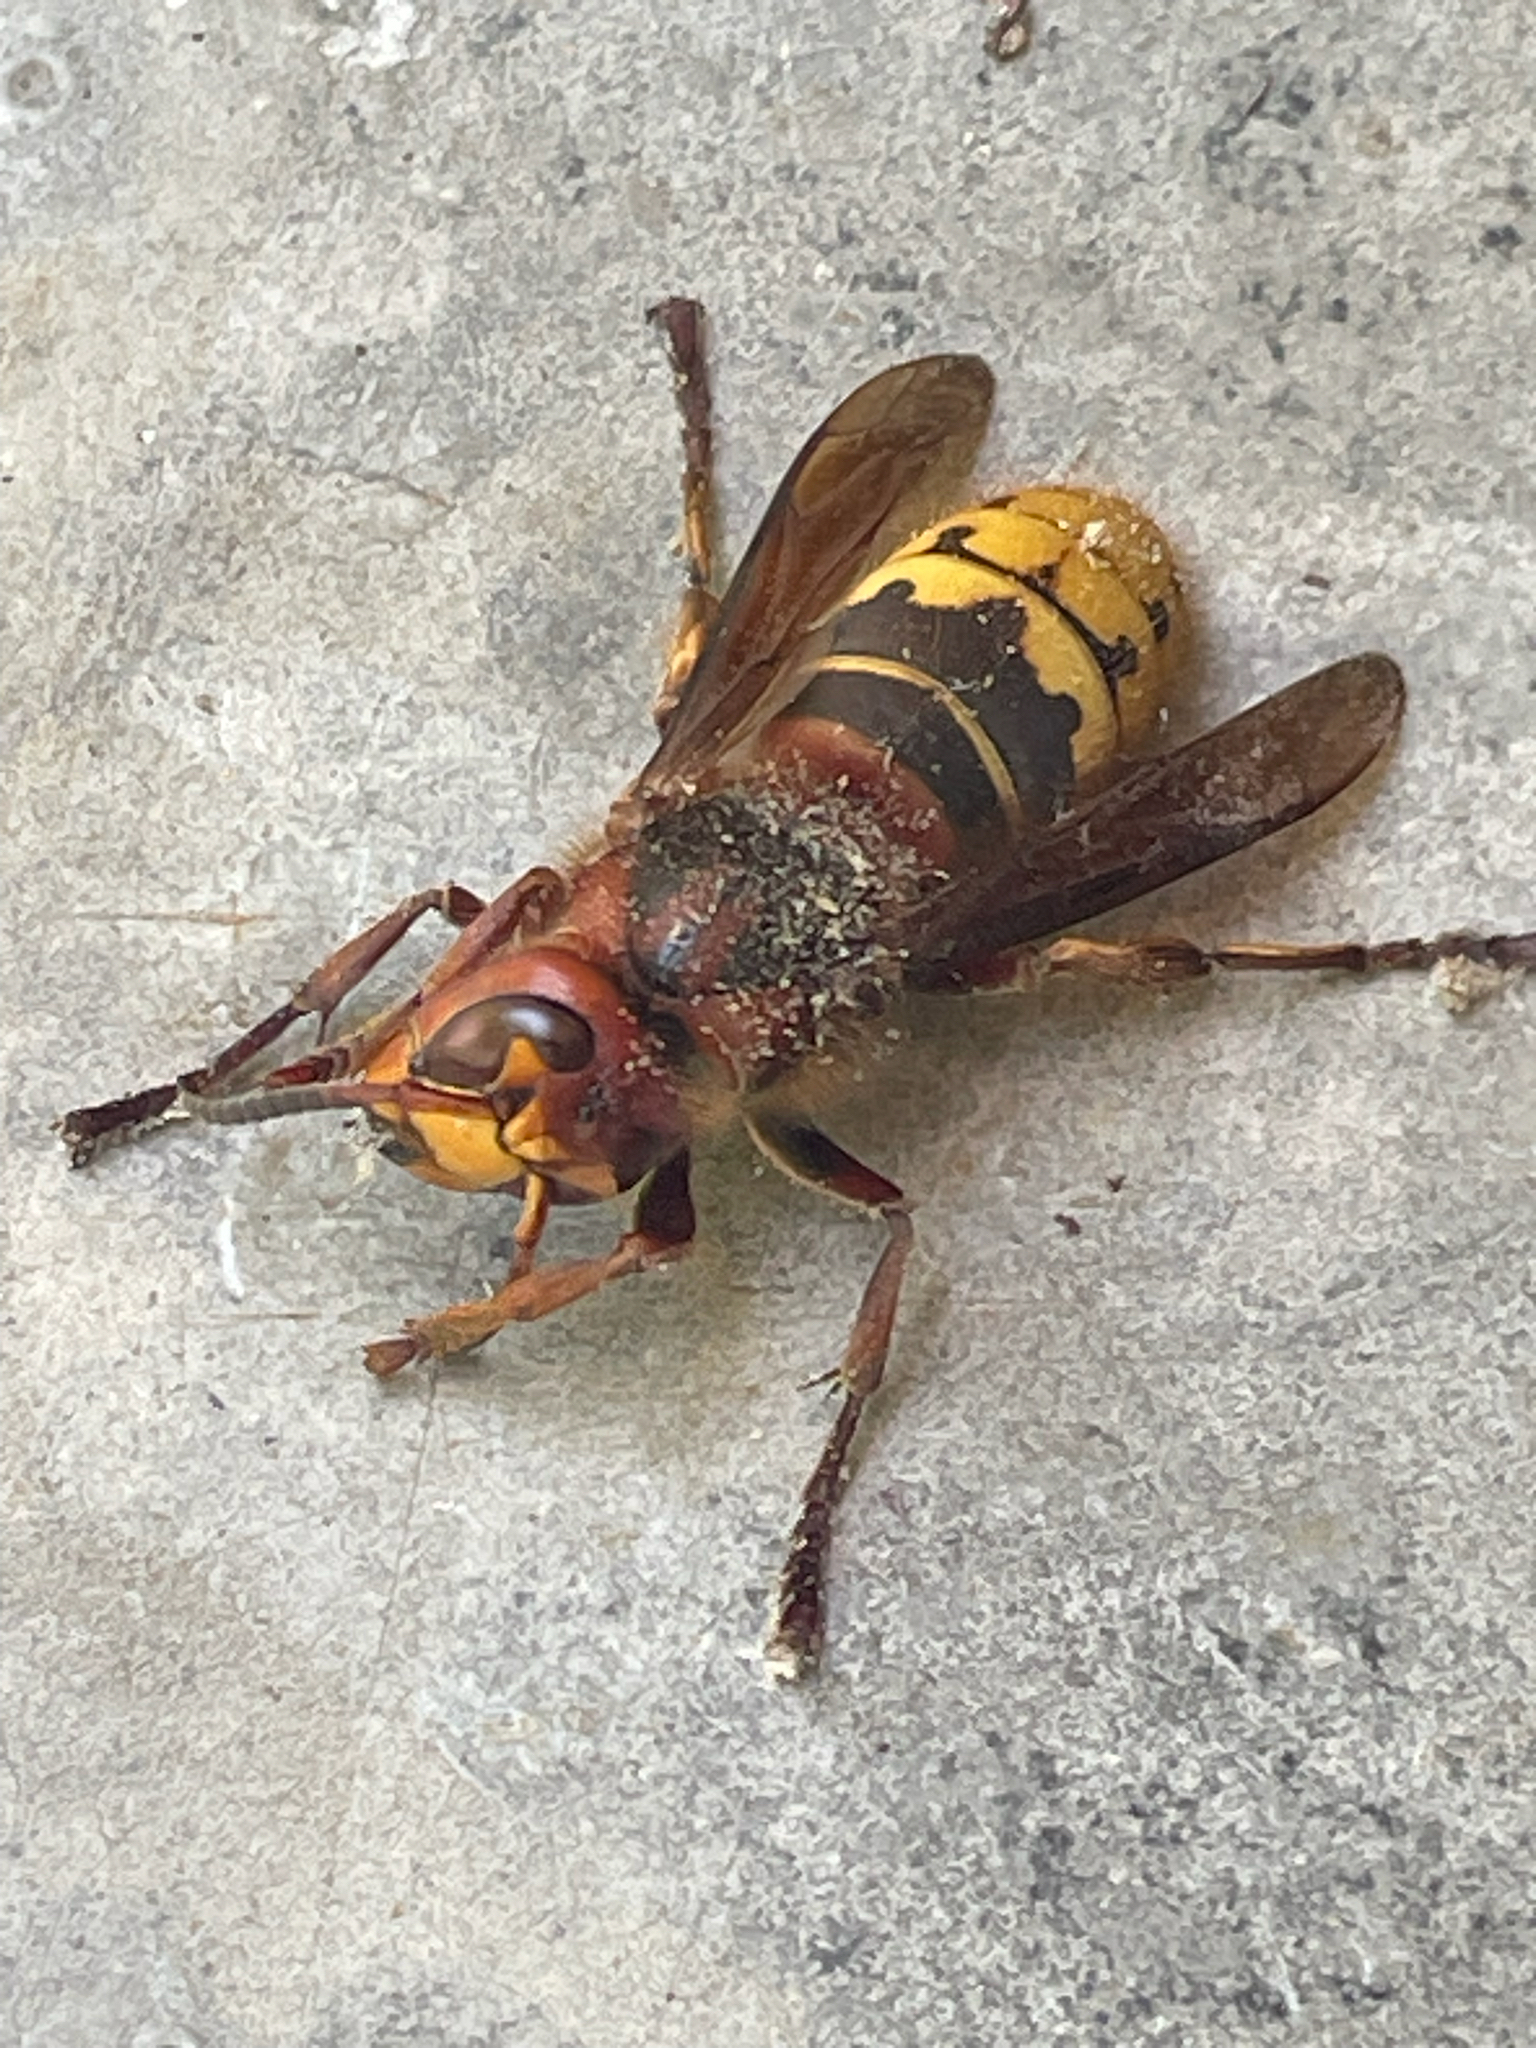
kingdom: Animalia
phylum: Arthropoda
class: Insecta
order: Hymenoptera
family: Vespidae
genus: Vespa
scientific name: Vespa crabro
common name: Hornet
